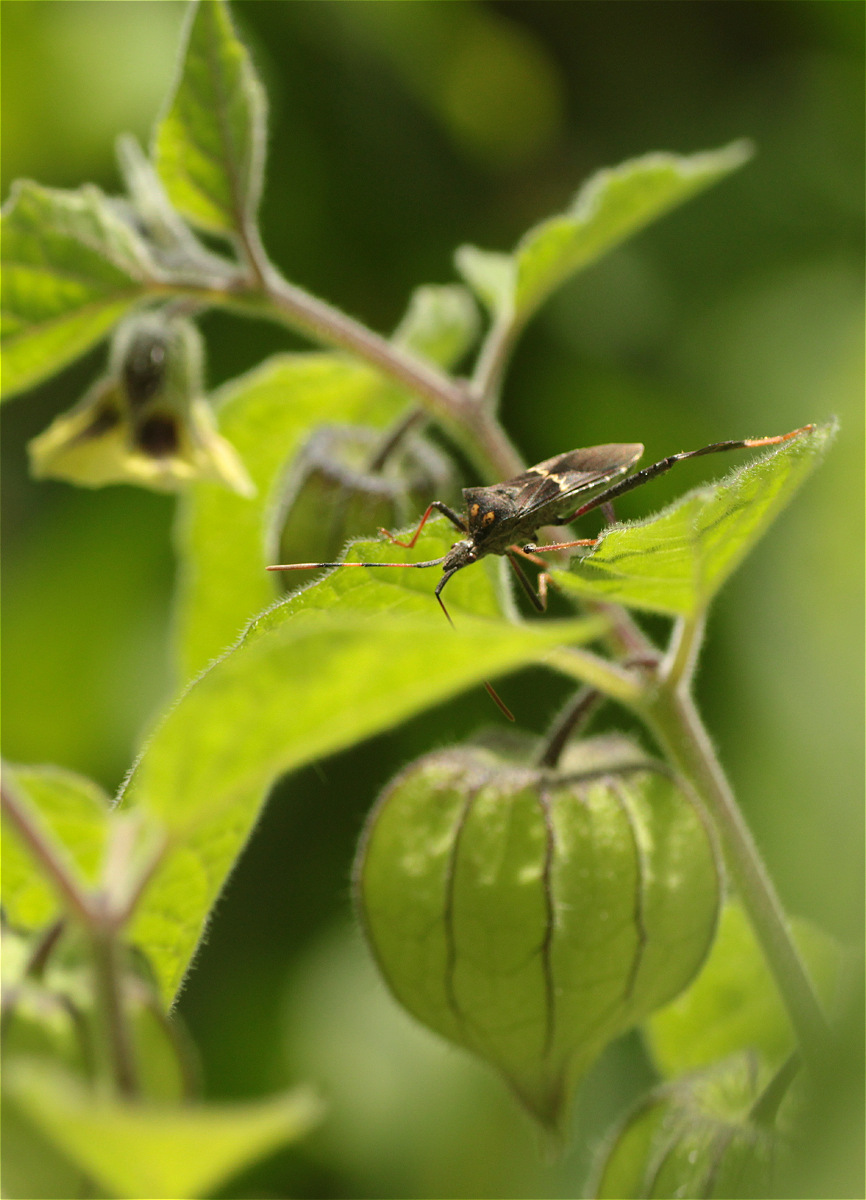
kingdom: Animalia
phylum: Arthropoda
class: Insecta
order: Hemiptera
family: Coreidae
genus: Leptoglossus
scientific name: Leptoglossus zonatus
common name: Large-legged bug
